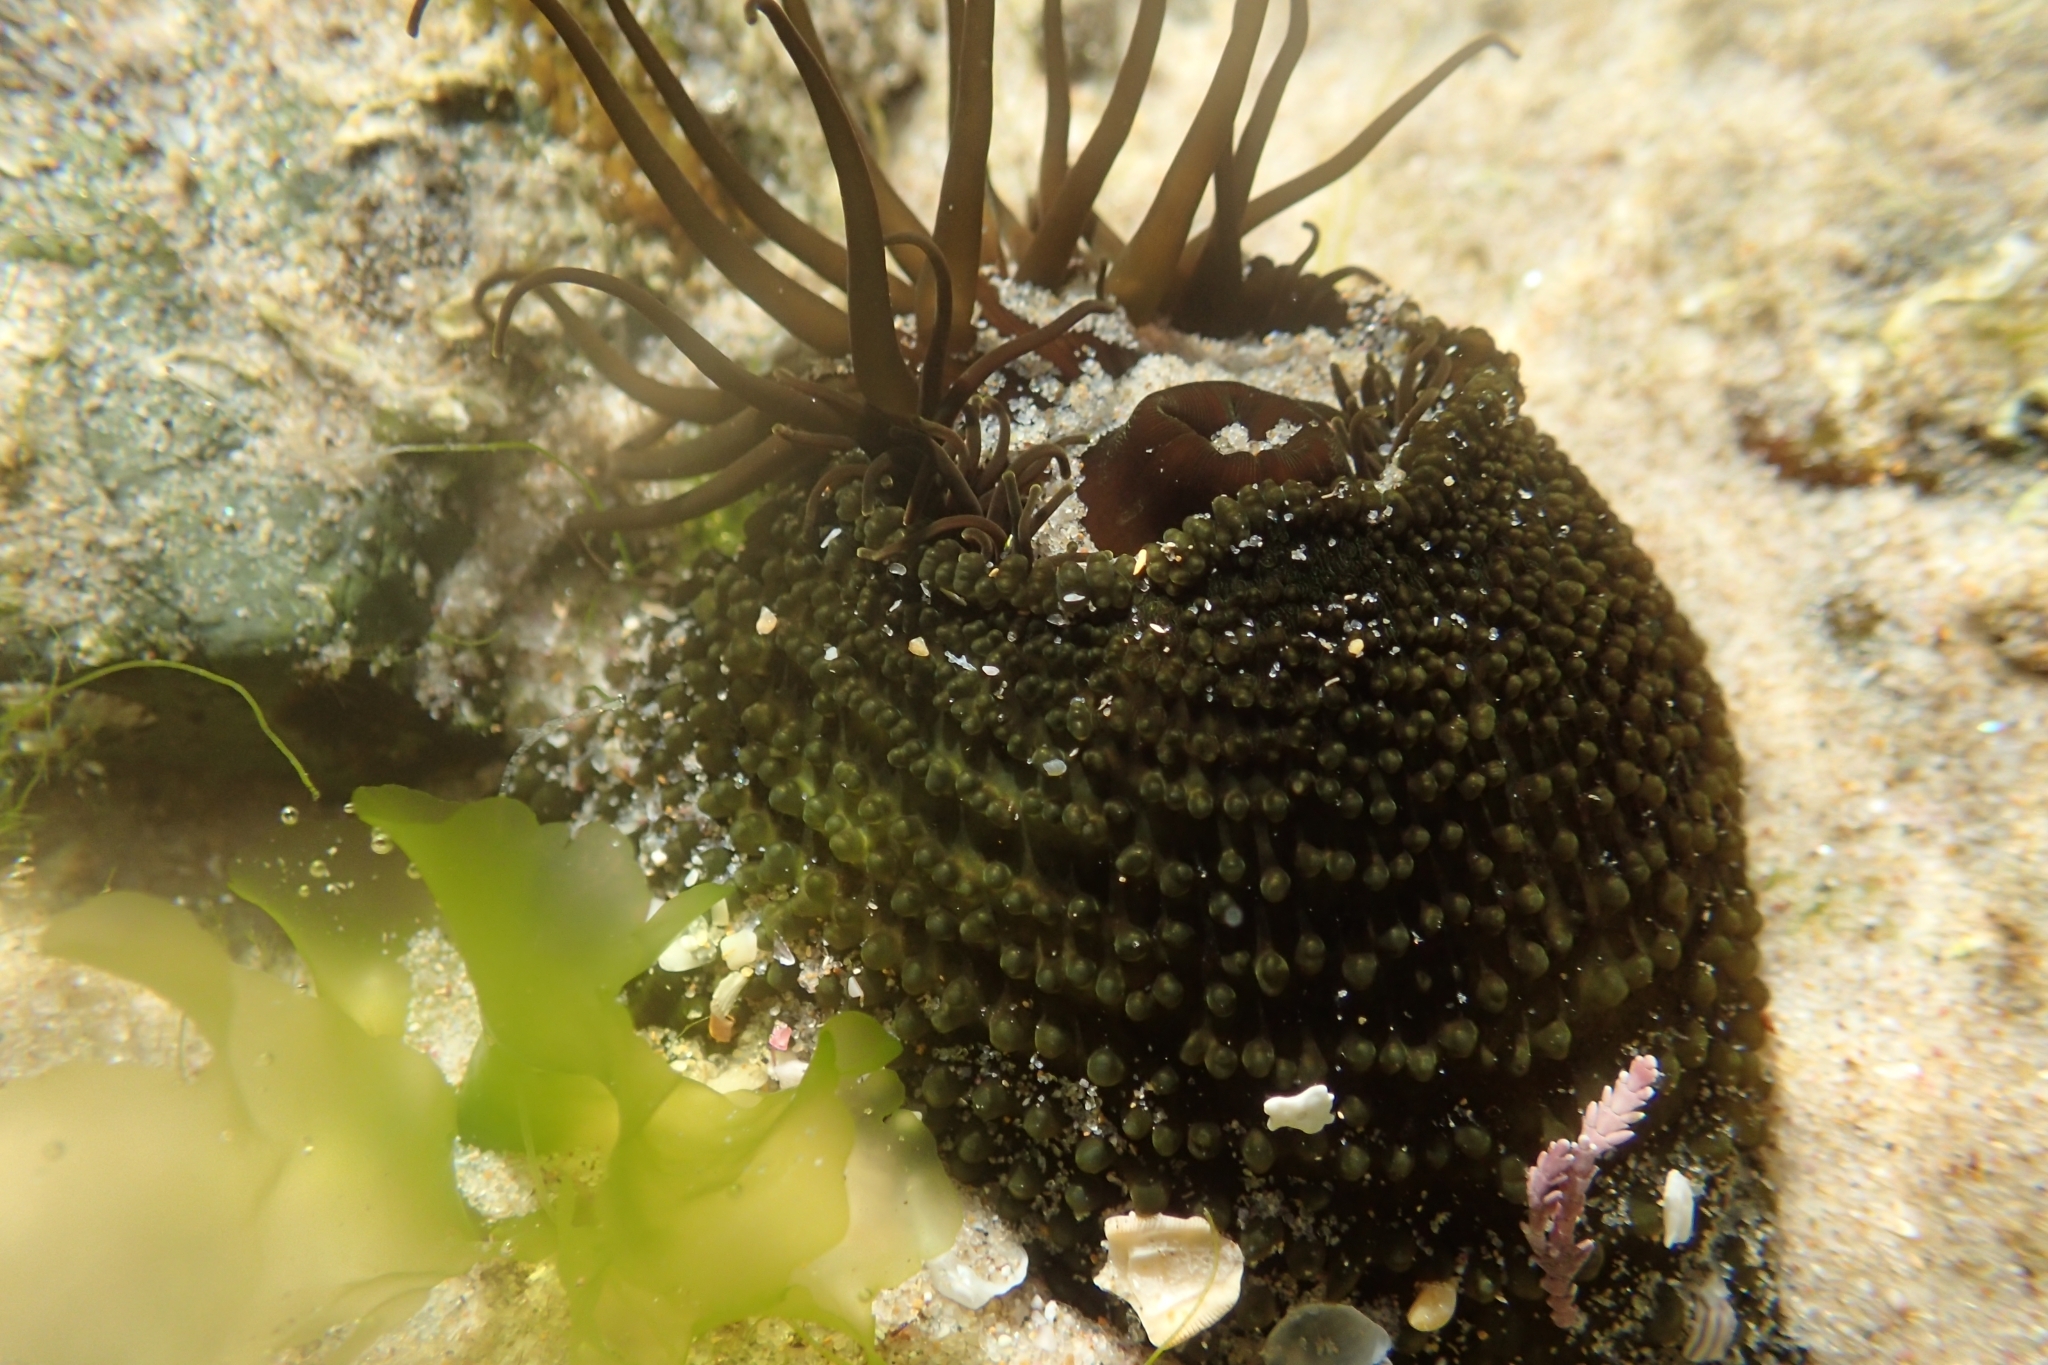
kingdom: Animalia
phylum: Cnidaria
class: Anthozoa
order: Actiniaria
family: Actiniidae
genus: Aulactinia
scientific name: Aulactinia veratra
